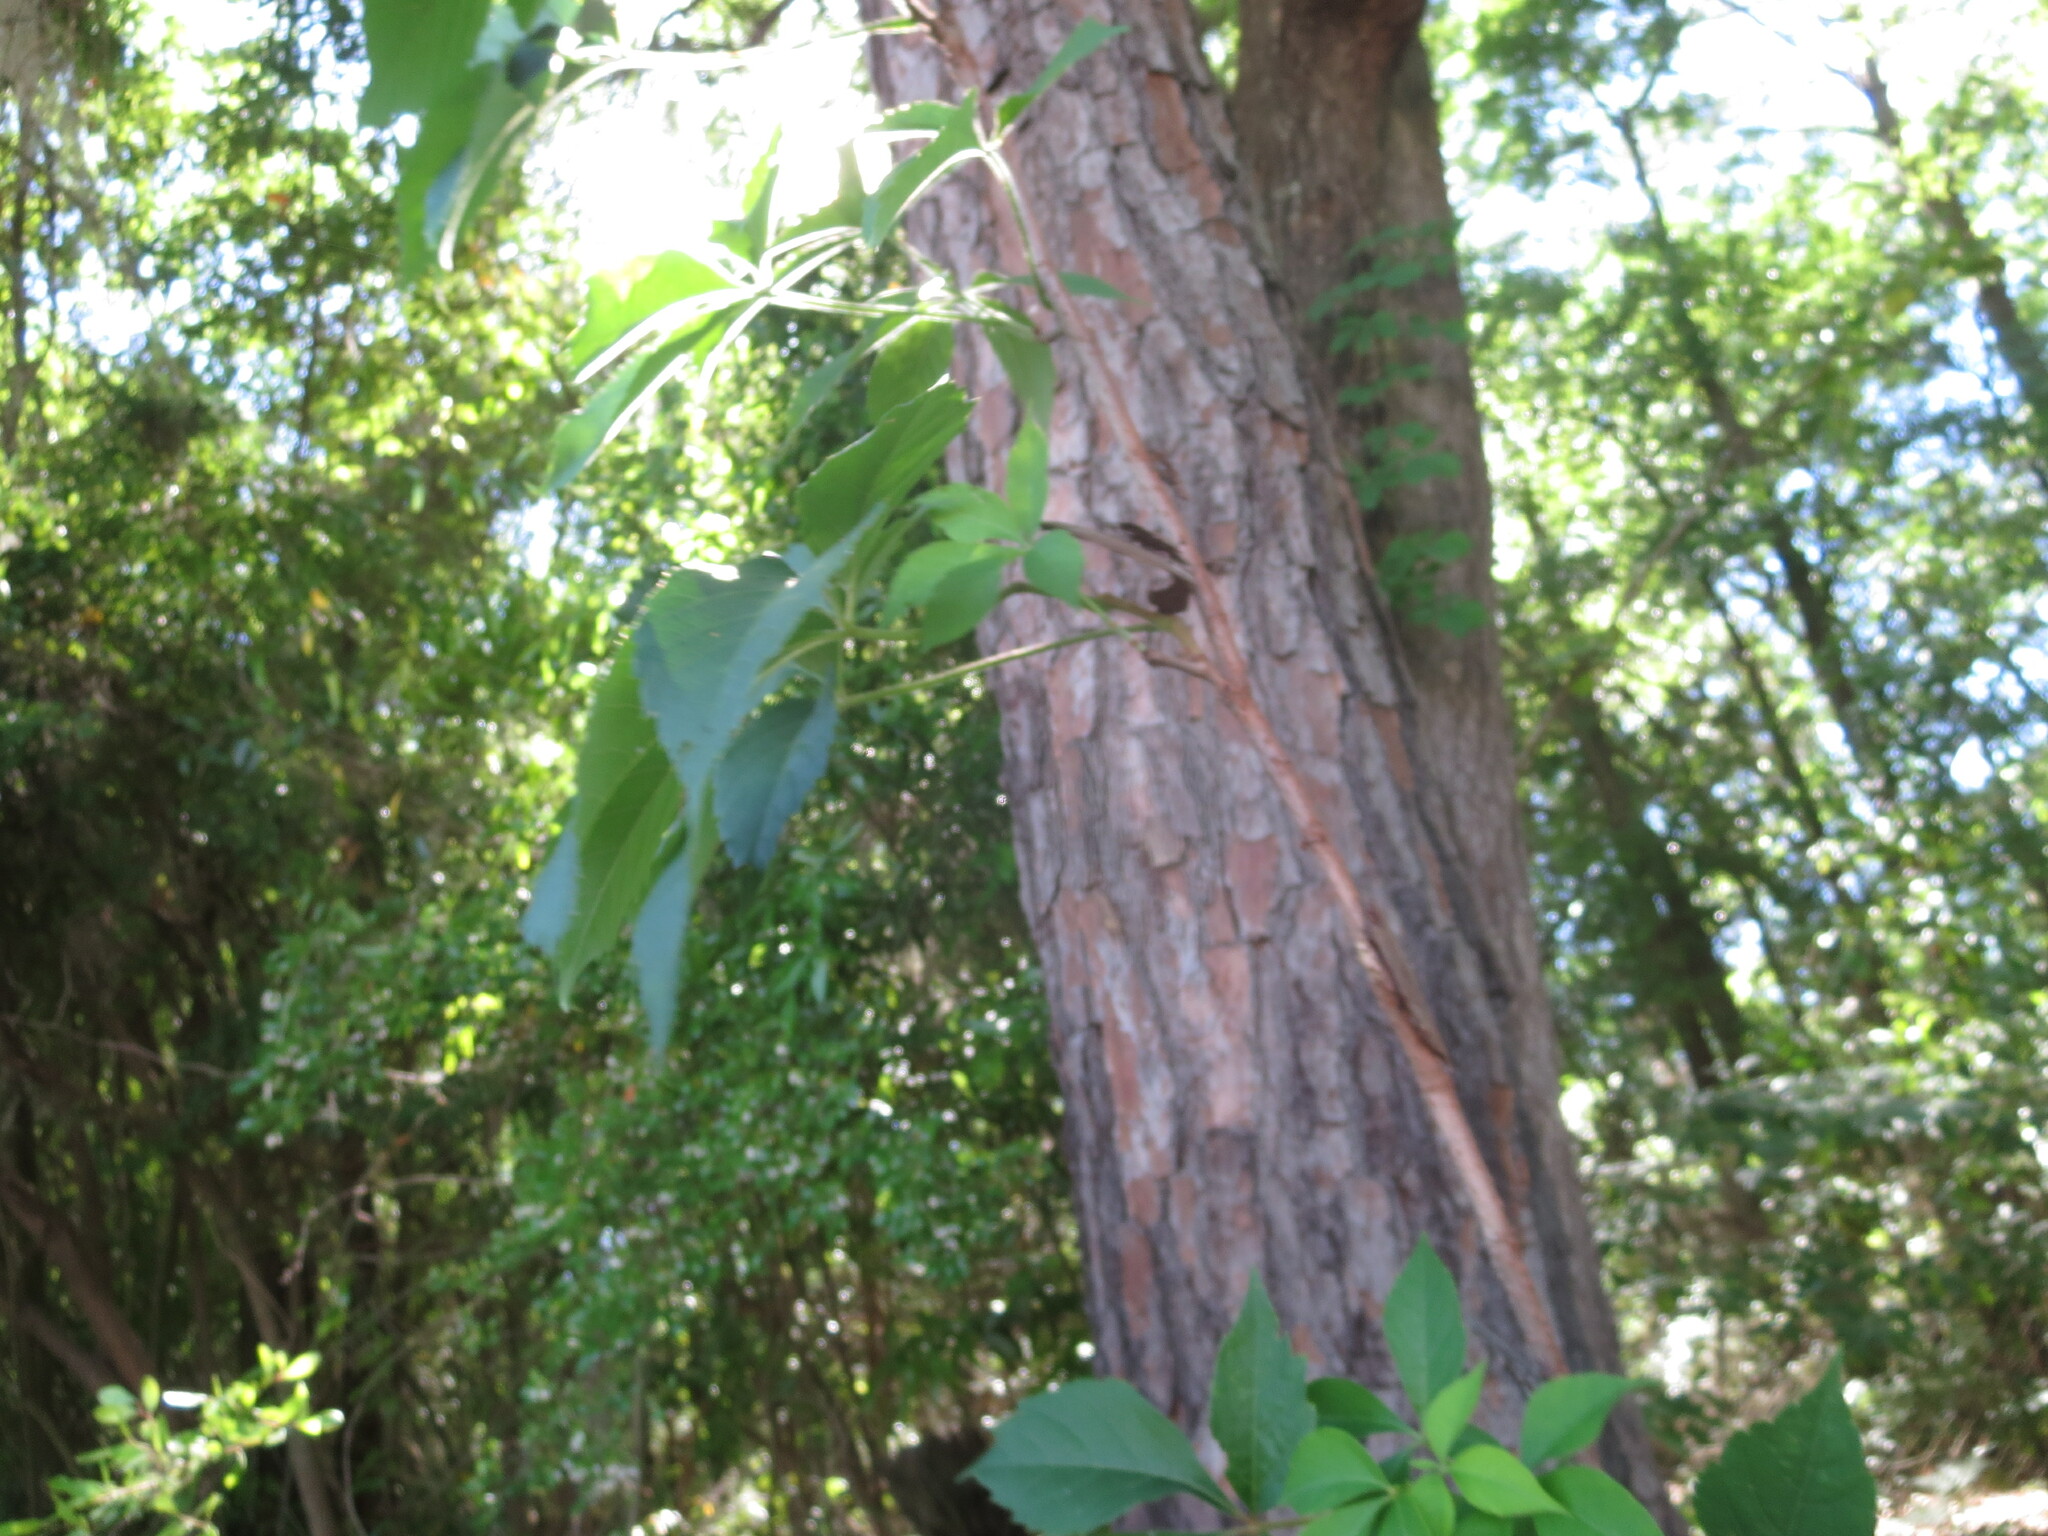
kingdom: Plantae
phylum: Tracheophyta
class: Magnoliopsida
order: Vitales
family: Vitaceae
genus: Parthenocissus
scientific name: Parthenocissus quinquefolia
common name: Virginia-creeper
